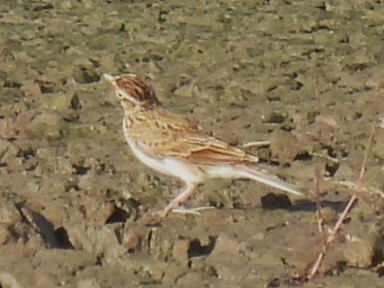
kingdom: Animalia
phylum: Chordata
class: Aves
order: Passeriformes
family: Alaudidae
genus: Alauda
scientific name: Alauda arvensis
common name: Eurasian skylark
